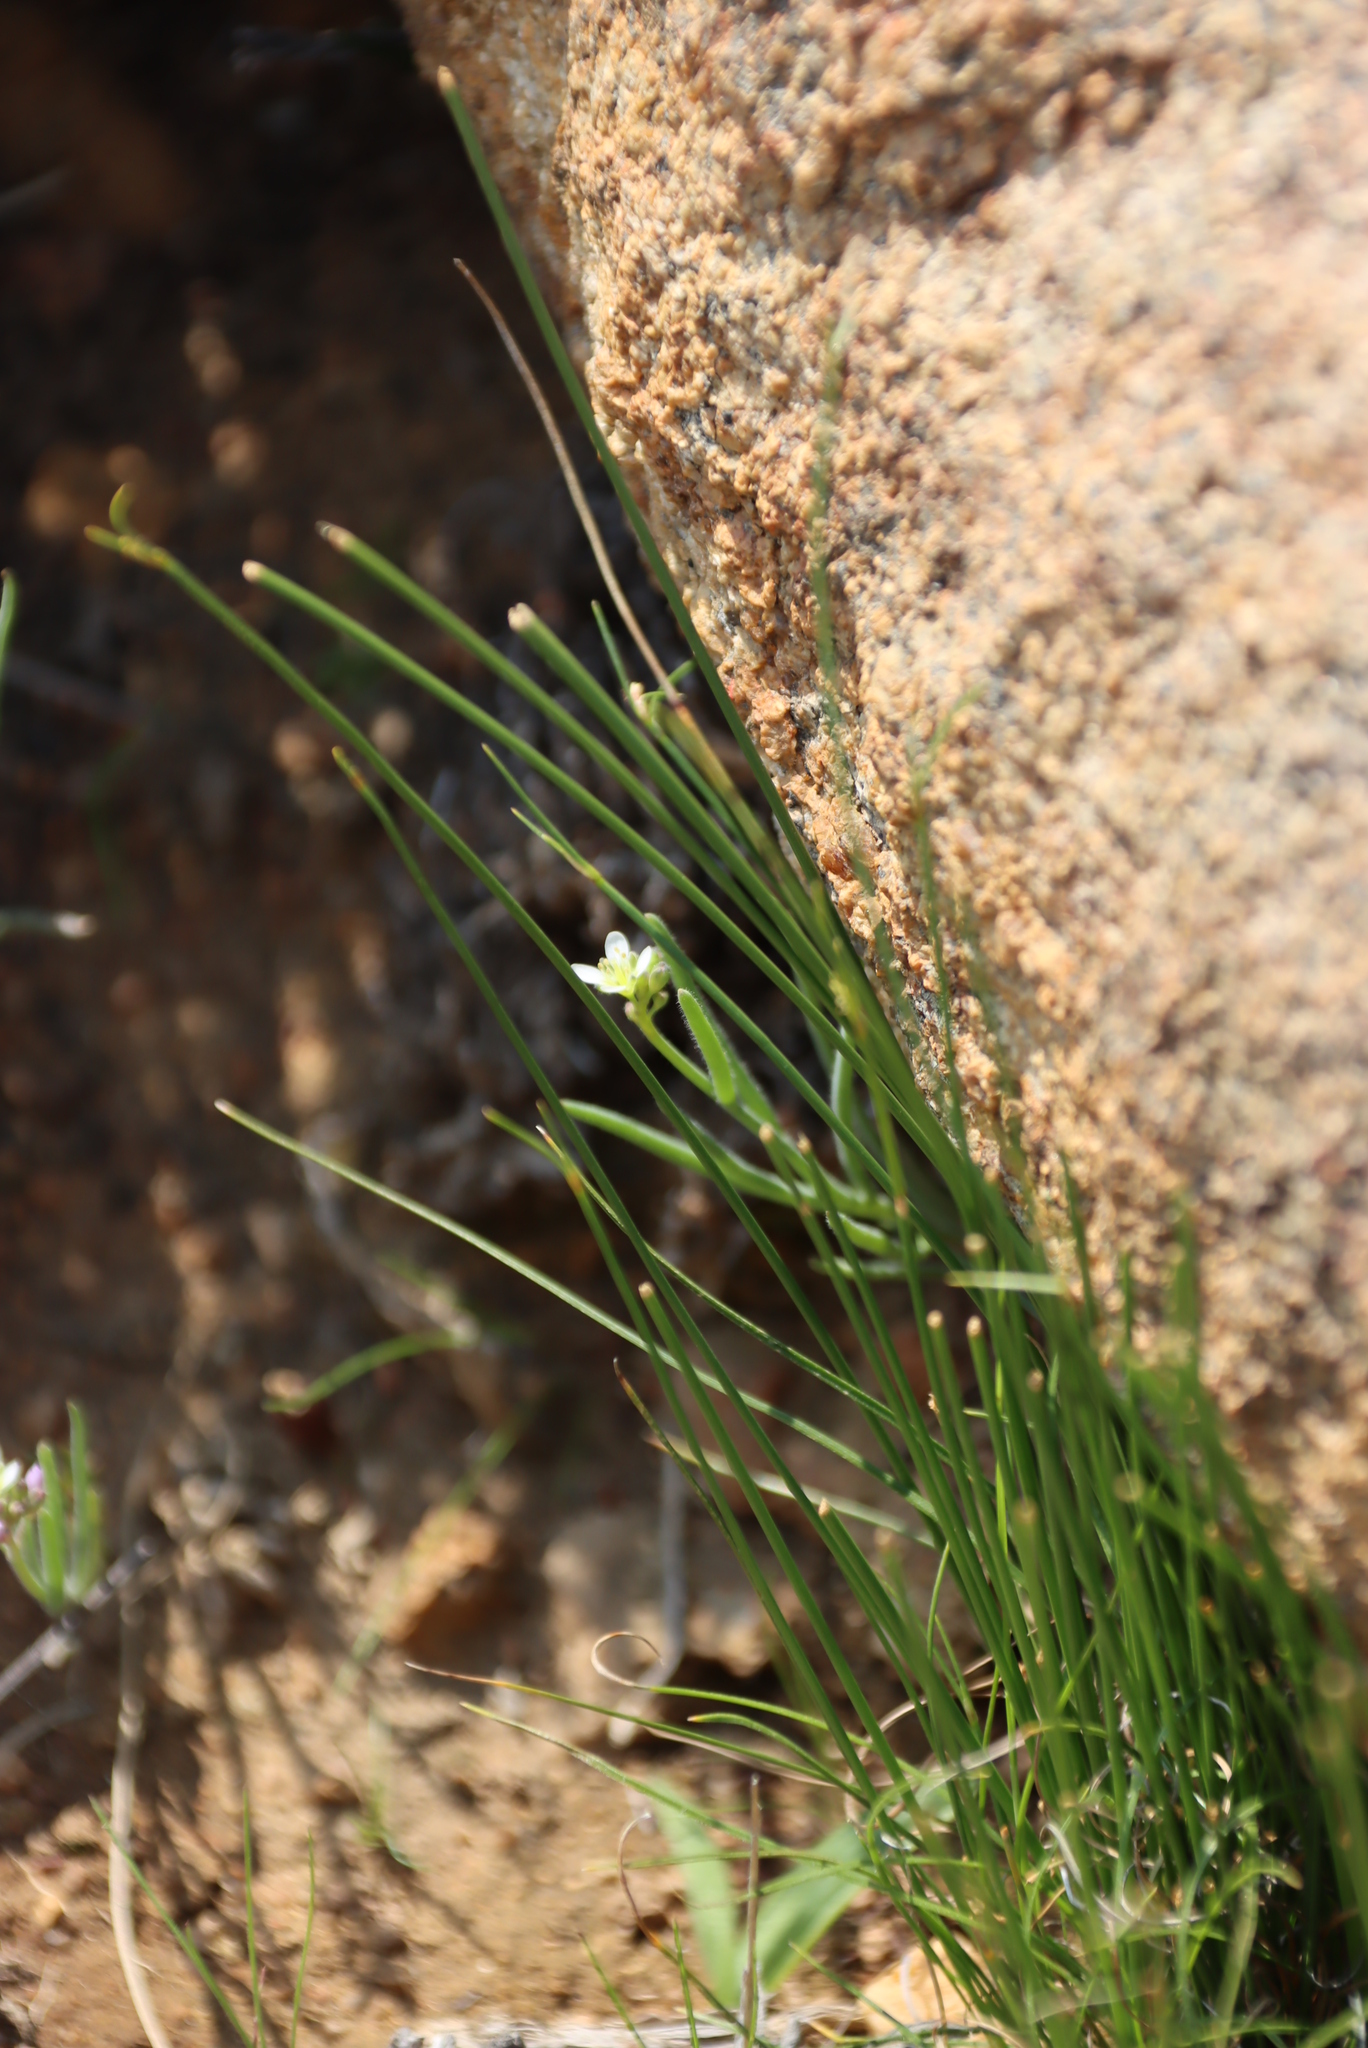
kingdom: Plantae
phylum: Tracheophyta
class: Magnoliopsida
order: Brassicales
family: Brassicaceae
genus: Heliophila
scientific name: Heliophila namaquana
